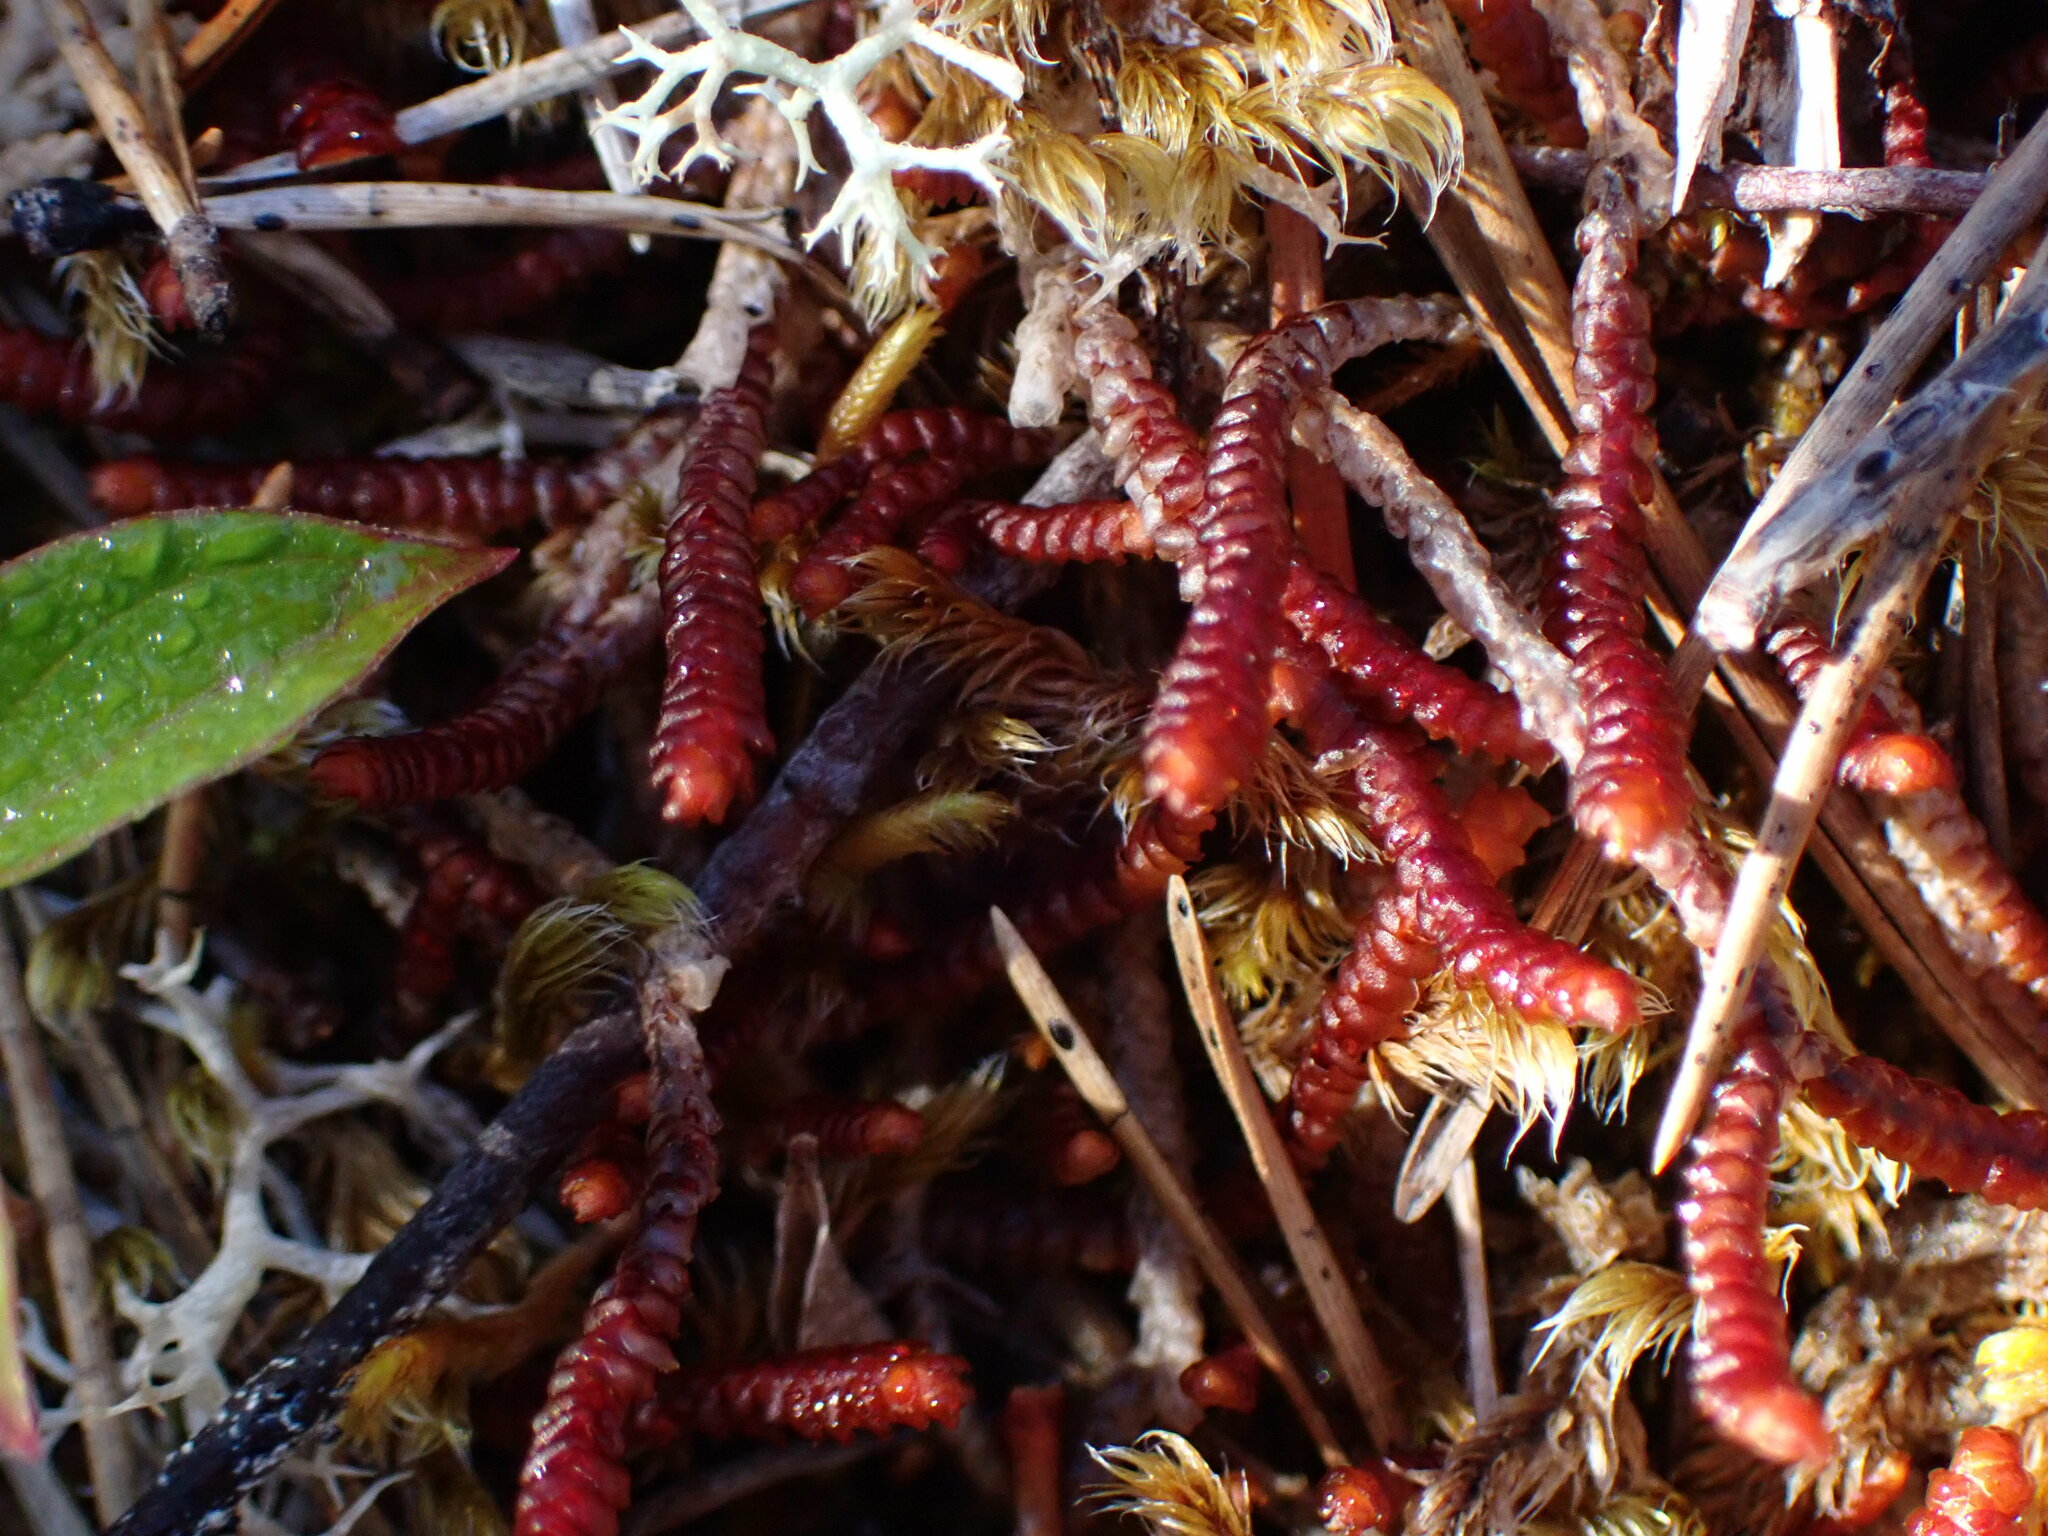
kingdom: Plantae
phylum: Marchantiophyta
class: Jungermanniopsida
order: Pleuroziales
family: Pleuroziaceae
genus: Pleurozia
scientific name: Pleurozia purpurea
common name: Purple spoonwort
